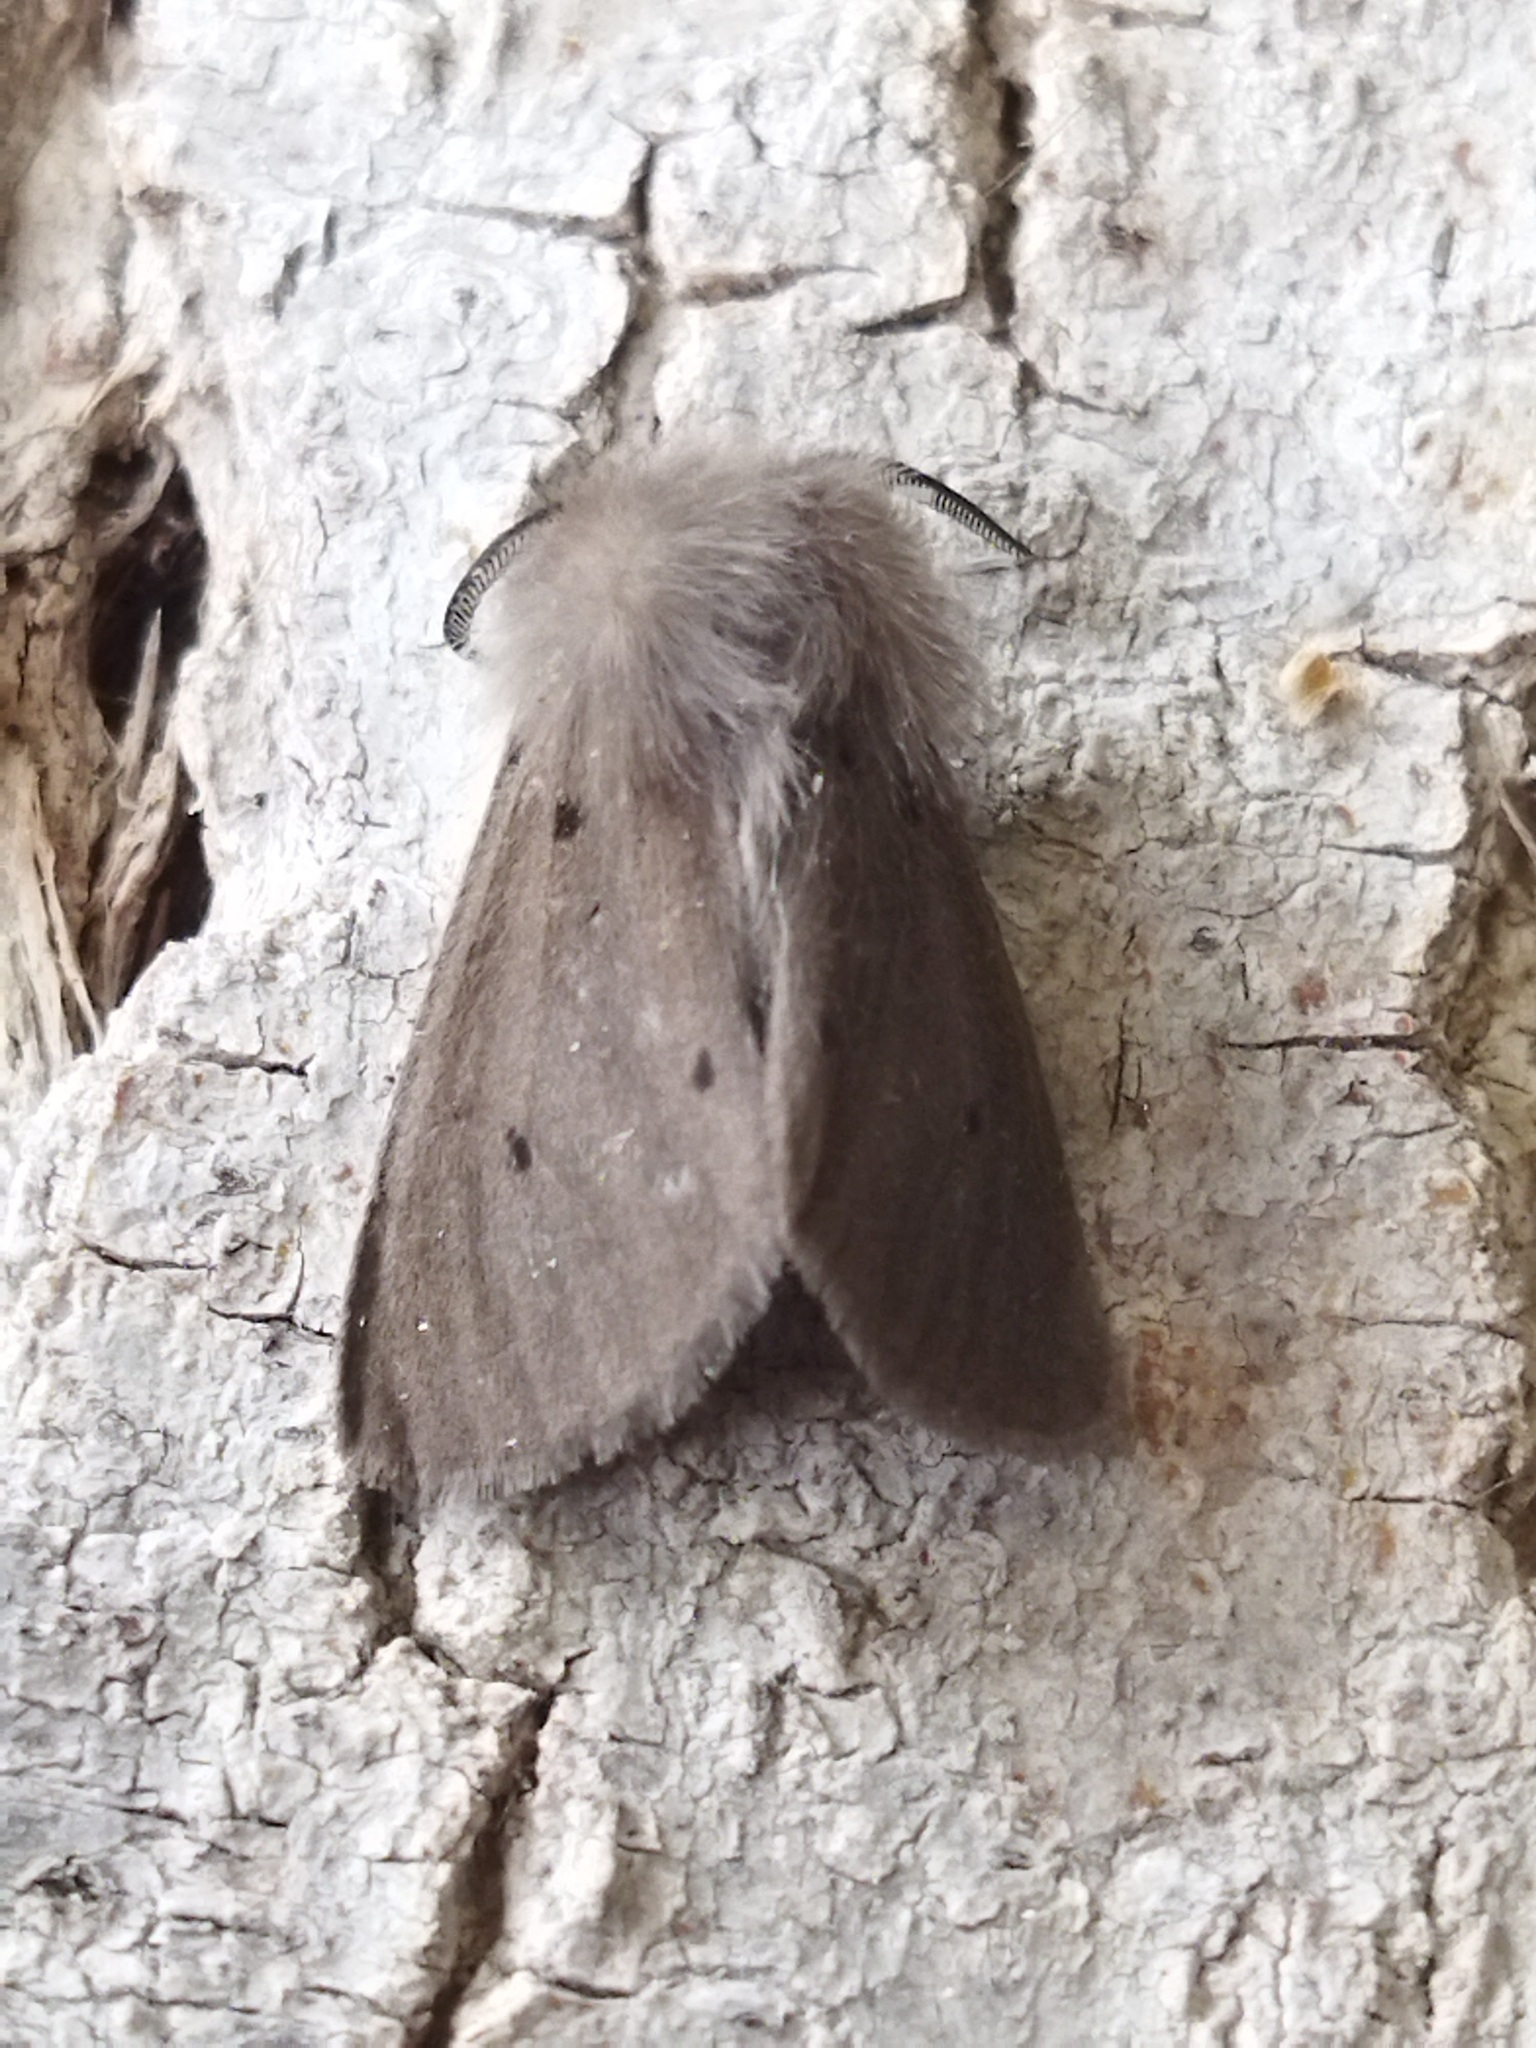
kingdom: Animalia
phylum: Arthropoda
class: Insecta
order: Lepidoptera
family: Erebidae
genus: Diaphora
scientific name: Diaphora mendica
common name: Muslin moth
